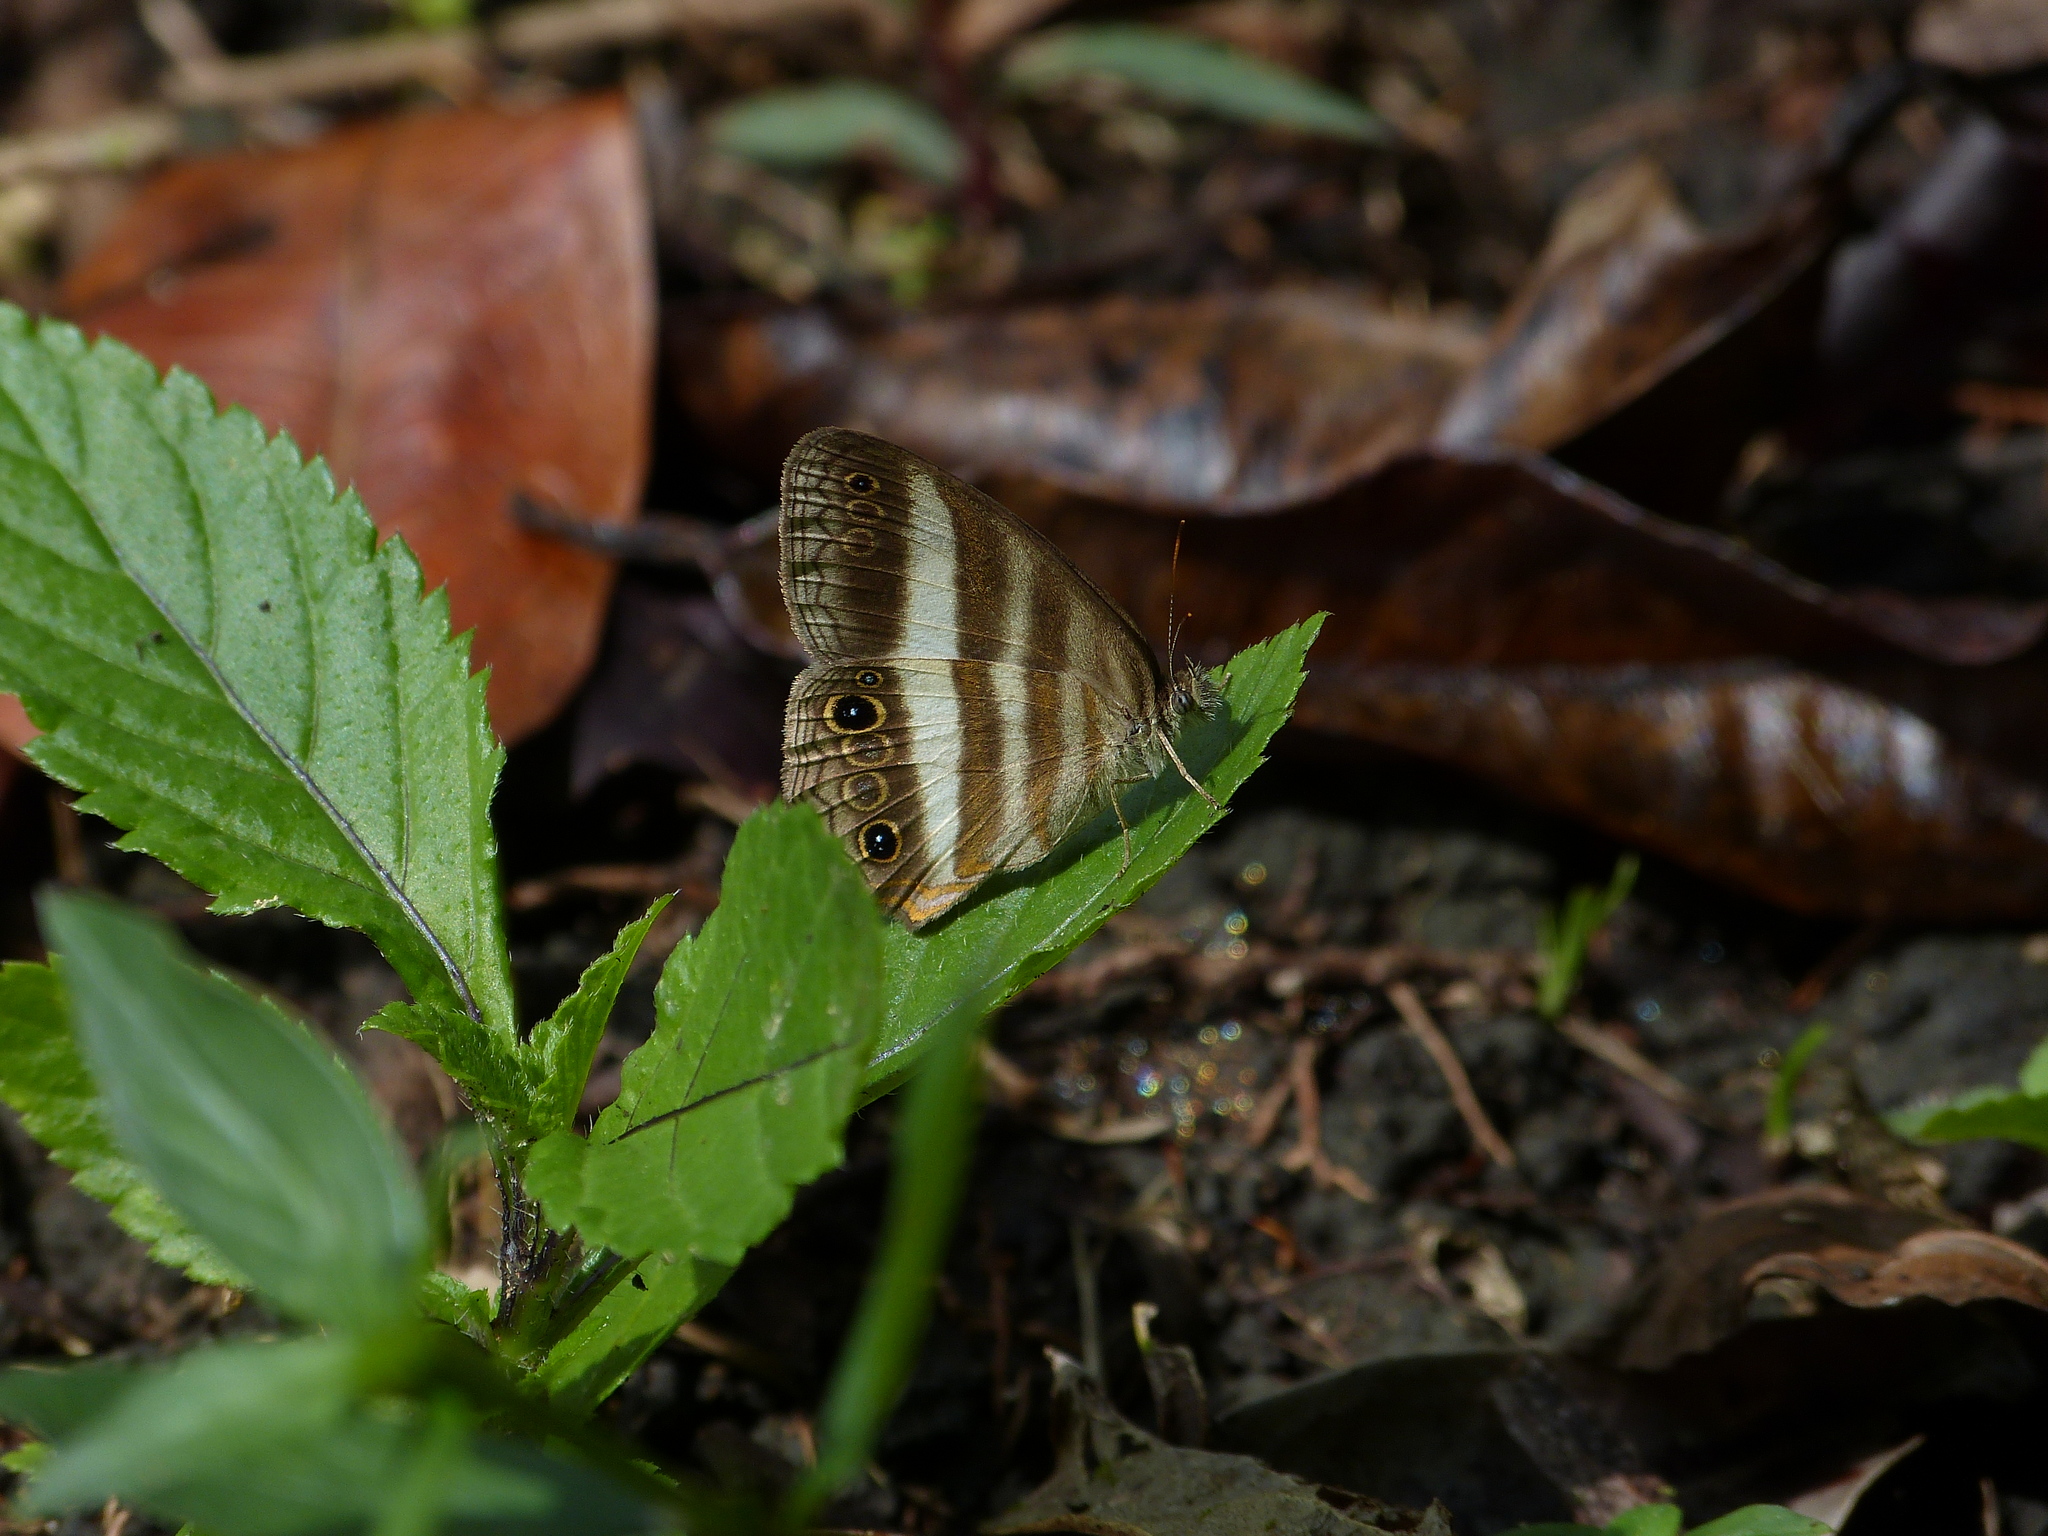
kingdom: Animalia
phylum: Arthropoda
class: Insecta
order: Lepidoptera
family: Nymphalidae
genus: Pareuptychia
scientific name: Pareuptychia hesione
